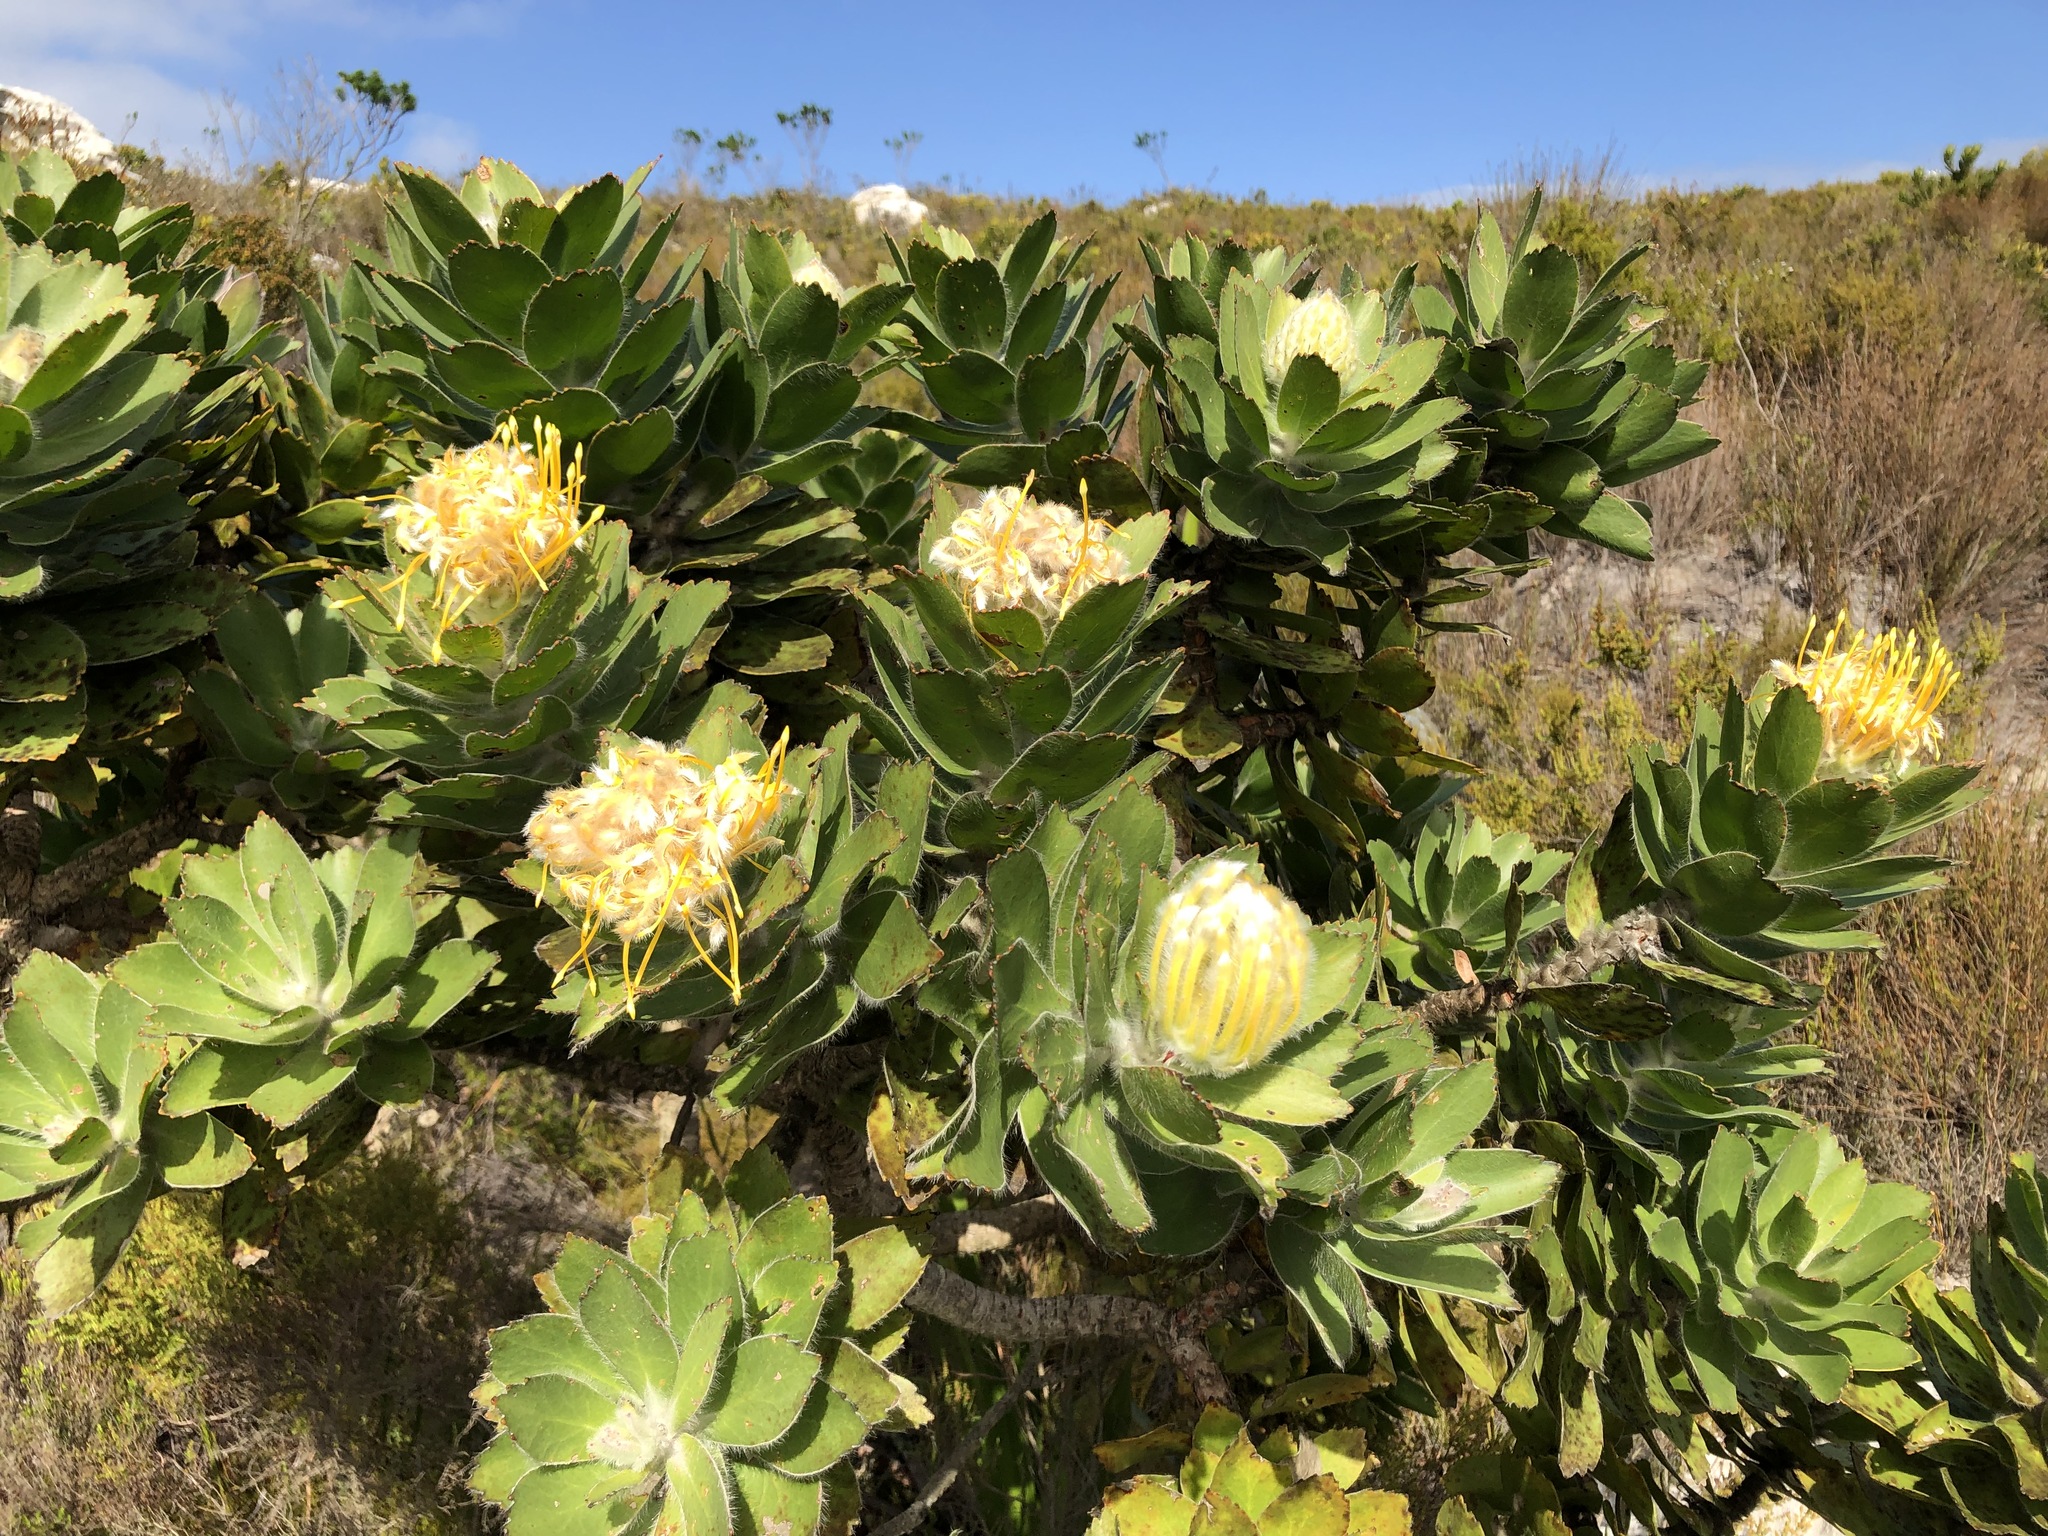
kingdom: Plantae
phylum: Tracheophyta
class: Magnoliopsida
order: Proteales
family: Proteaceae
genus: Leucospermum
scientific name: Leucospermum conocarpodendron
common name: Tree pincushion
